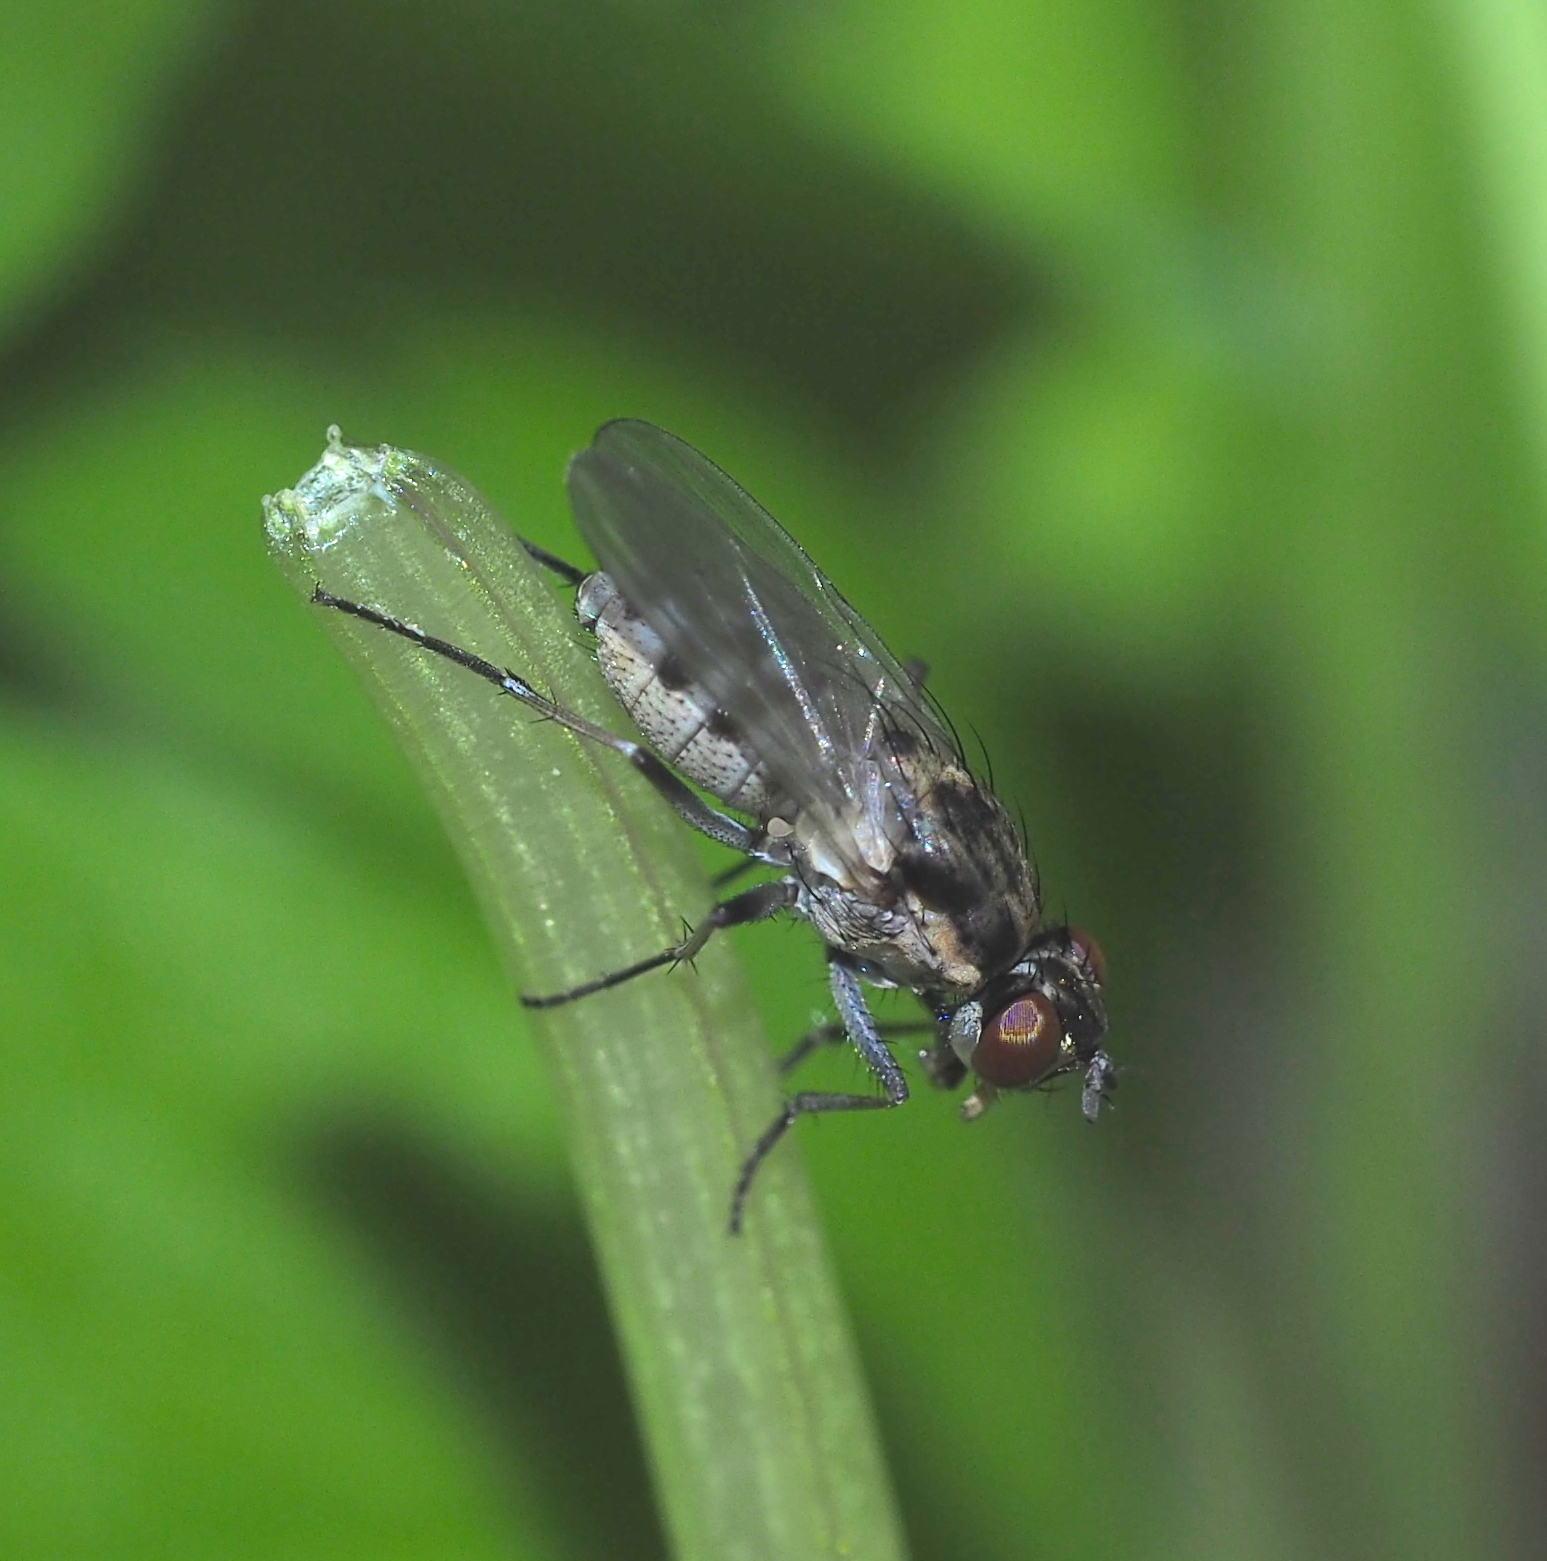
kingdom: Animalia
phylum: Arthropoda
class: Insecta
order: Diptera
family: Muscidae
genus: Lispe
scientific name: Lispe nana
